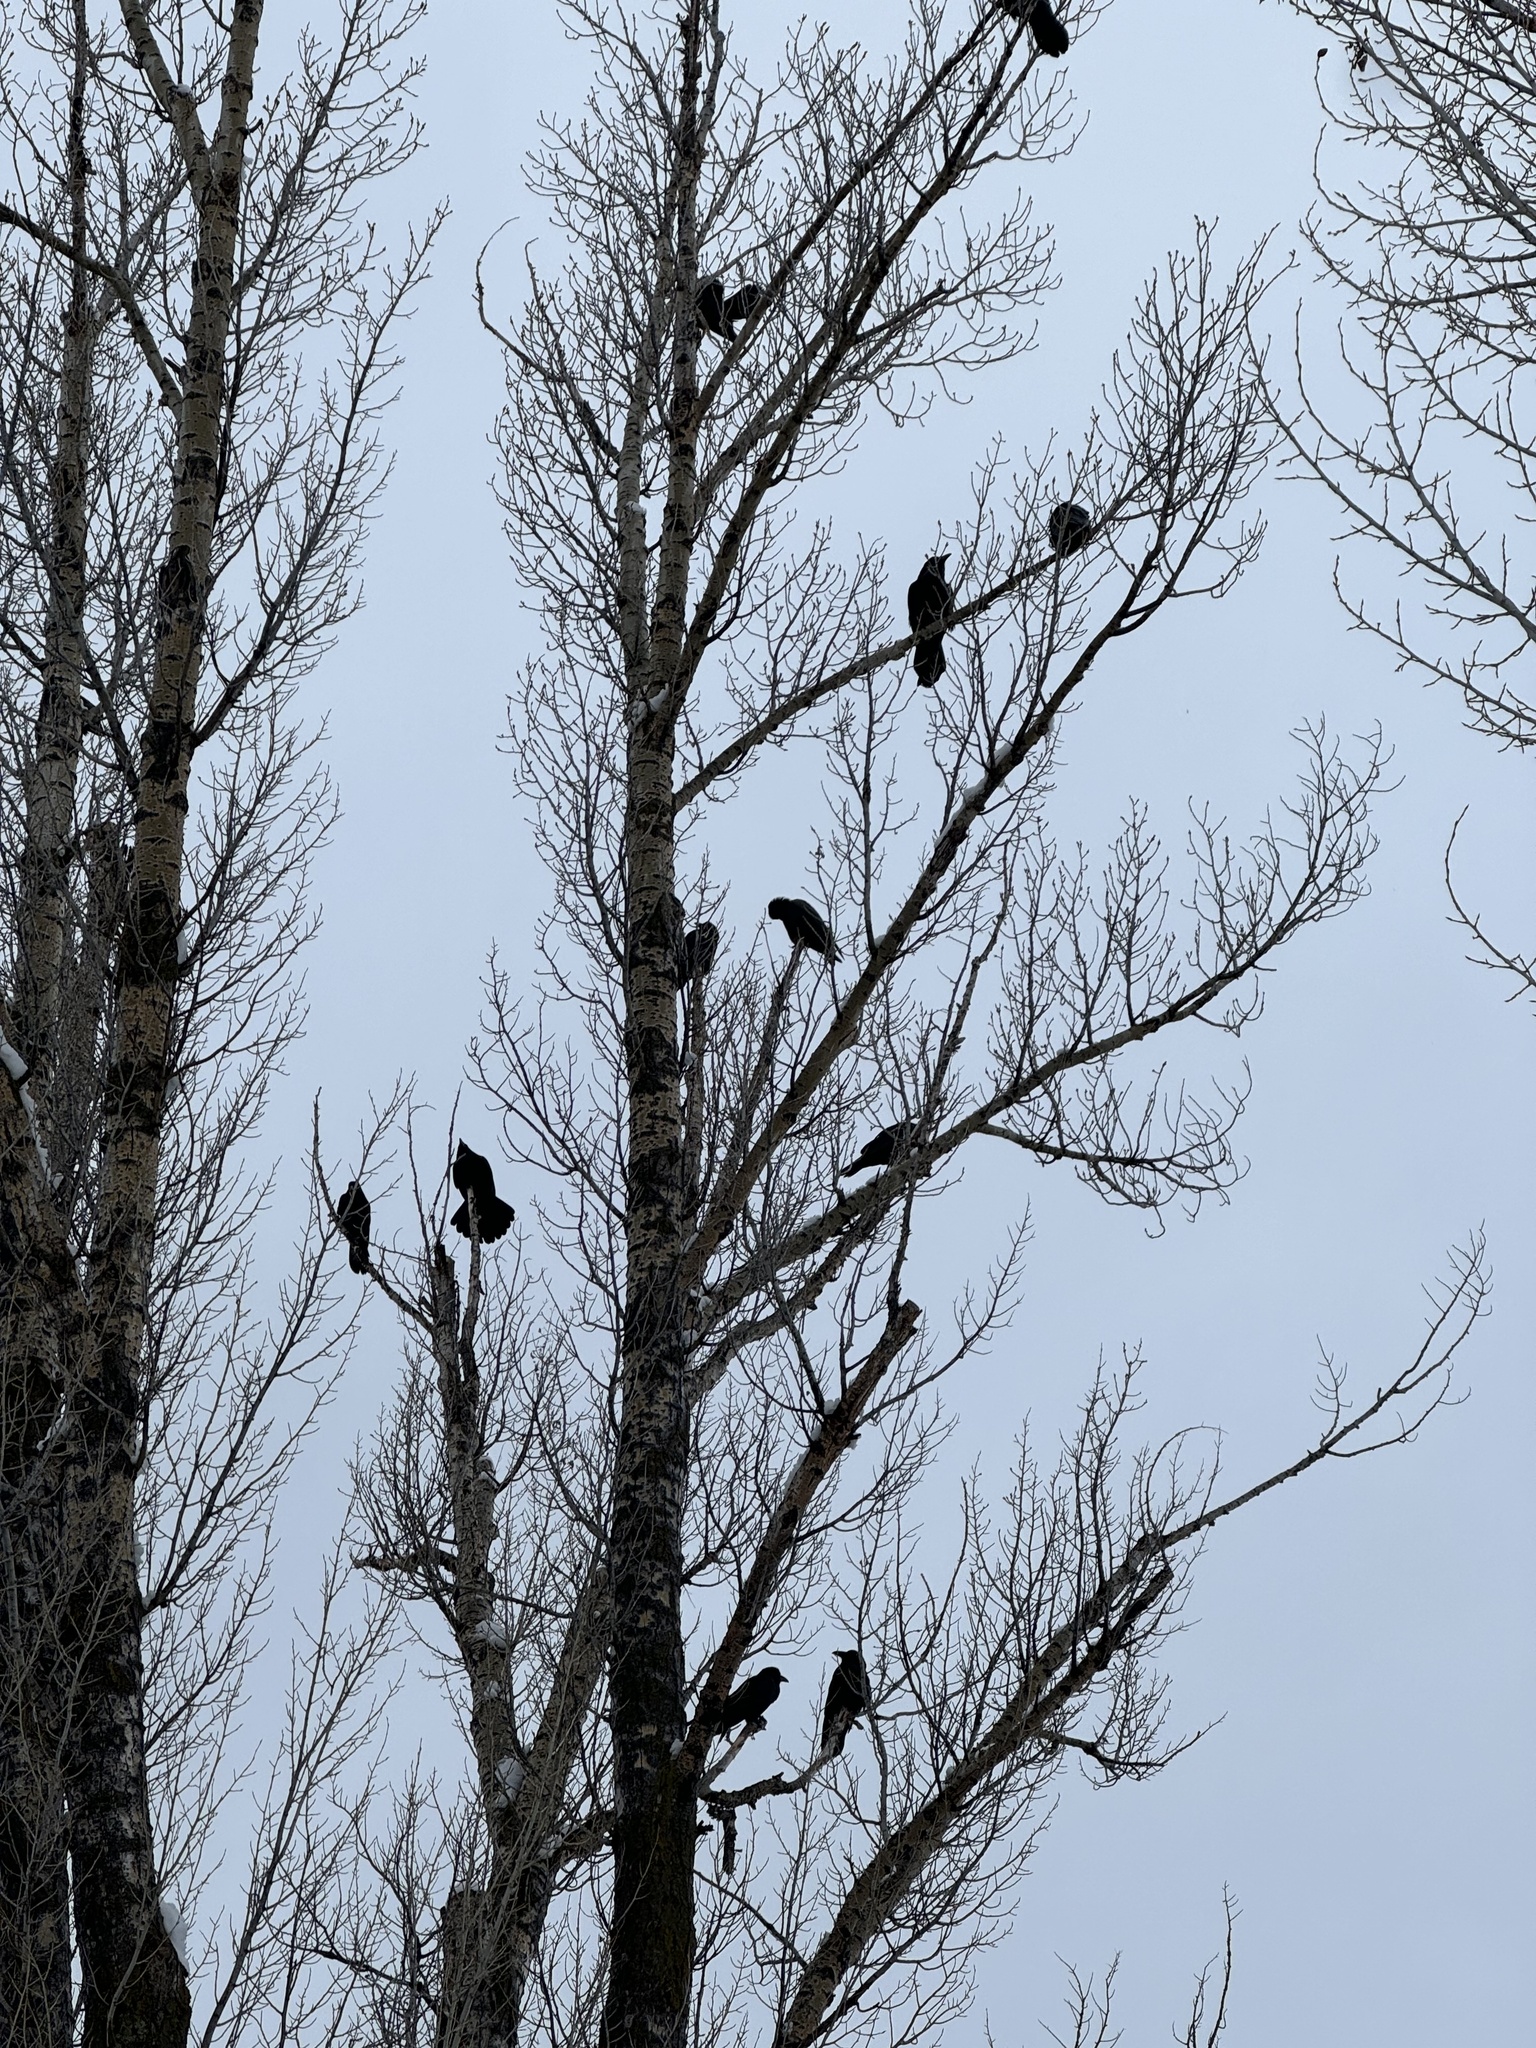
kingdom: Animalia
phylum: Chordata
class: Aves
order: Passeriformes
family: Corvidae
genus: Corvus
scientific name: Corvus corax
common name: Common raven
